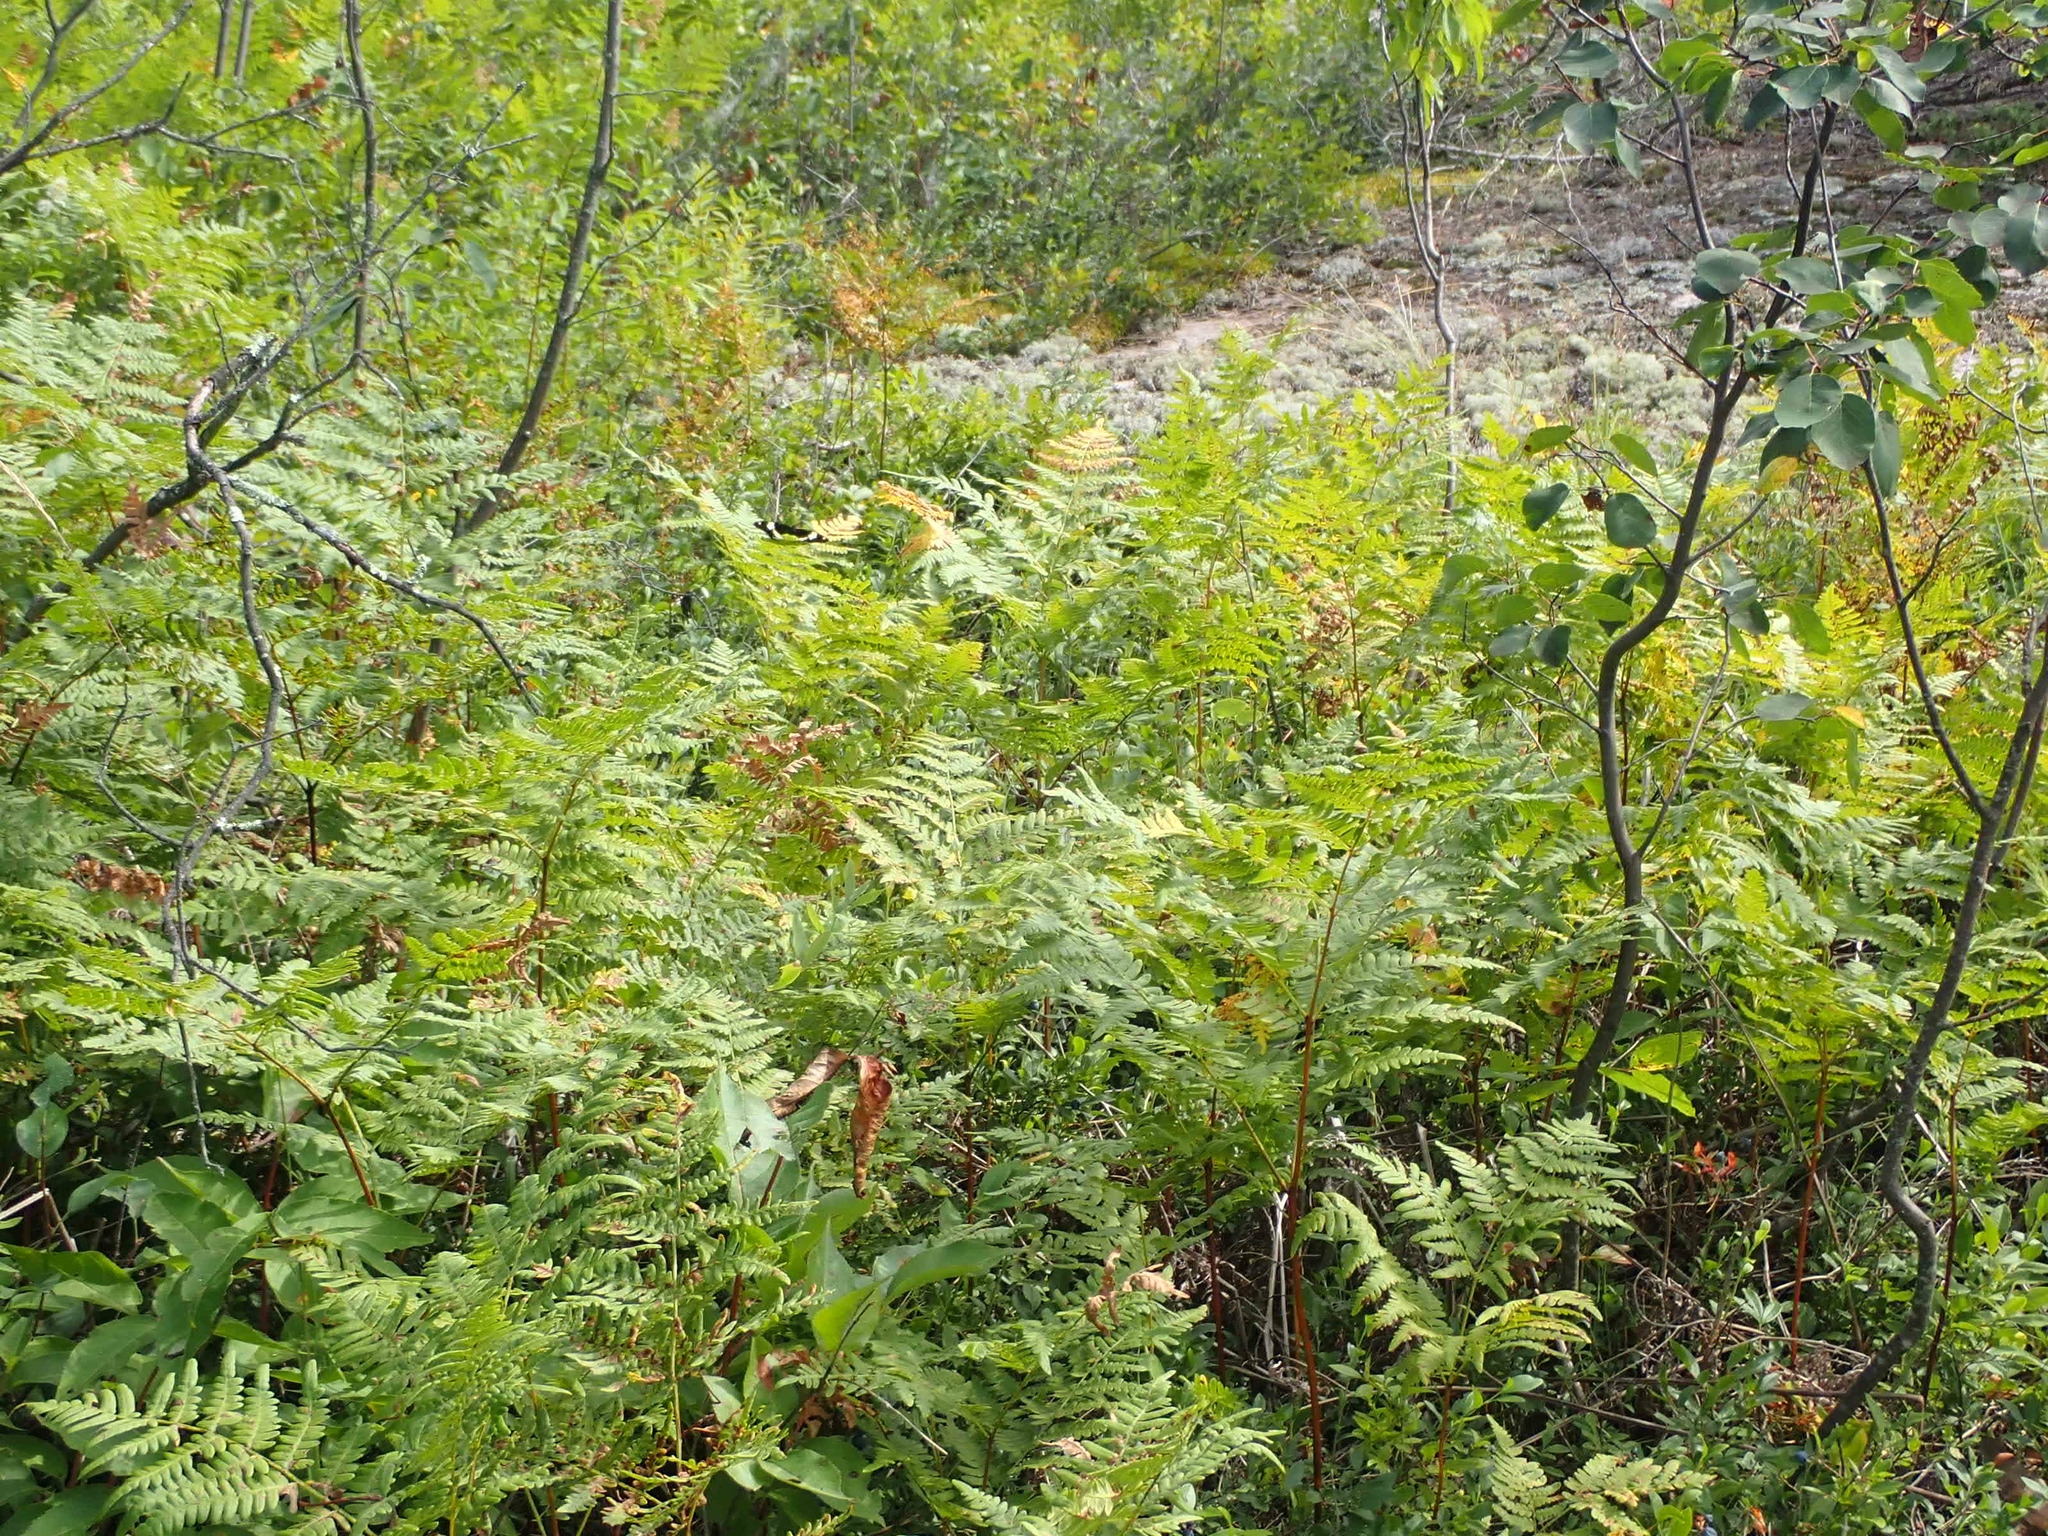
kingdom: Plantae
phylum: Tracheophyta
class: Polypodiopsida
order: Polypodiales
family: Dennstaedtiaceae
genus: Pteridium
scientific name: Pteridium aquilinum
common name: Bracken
